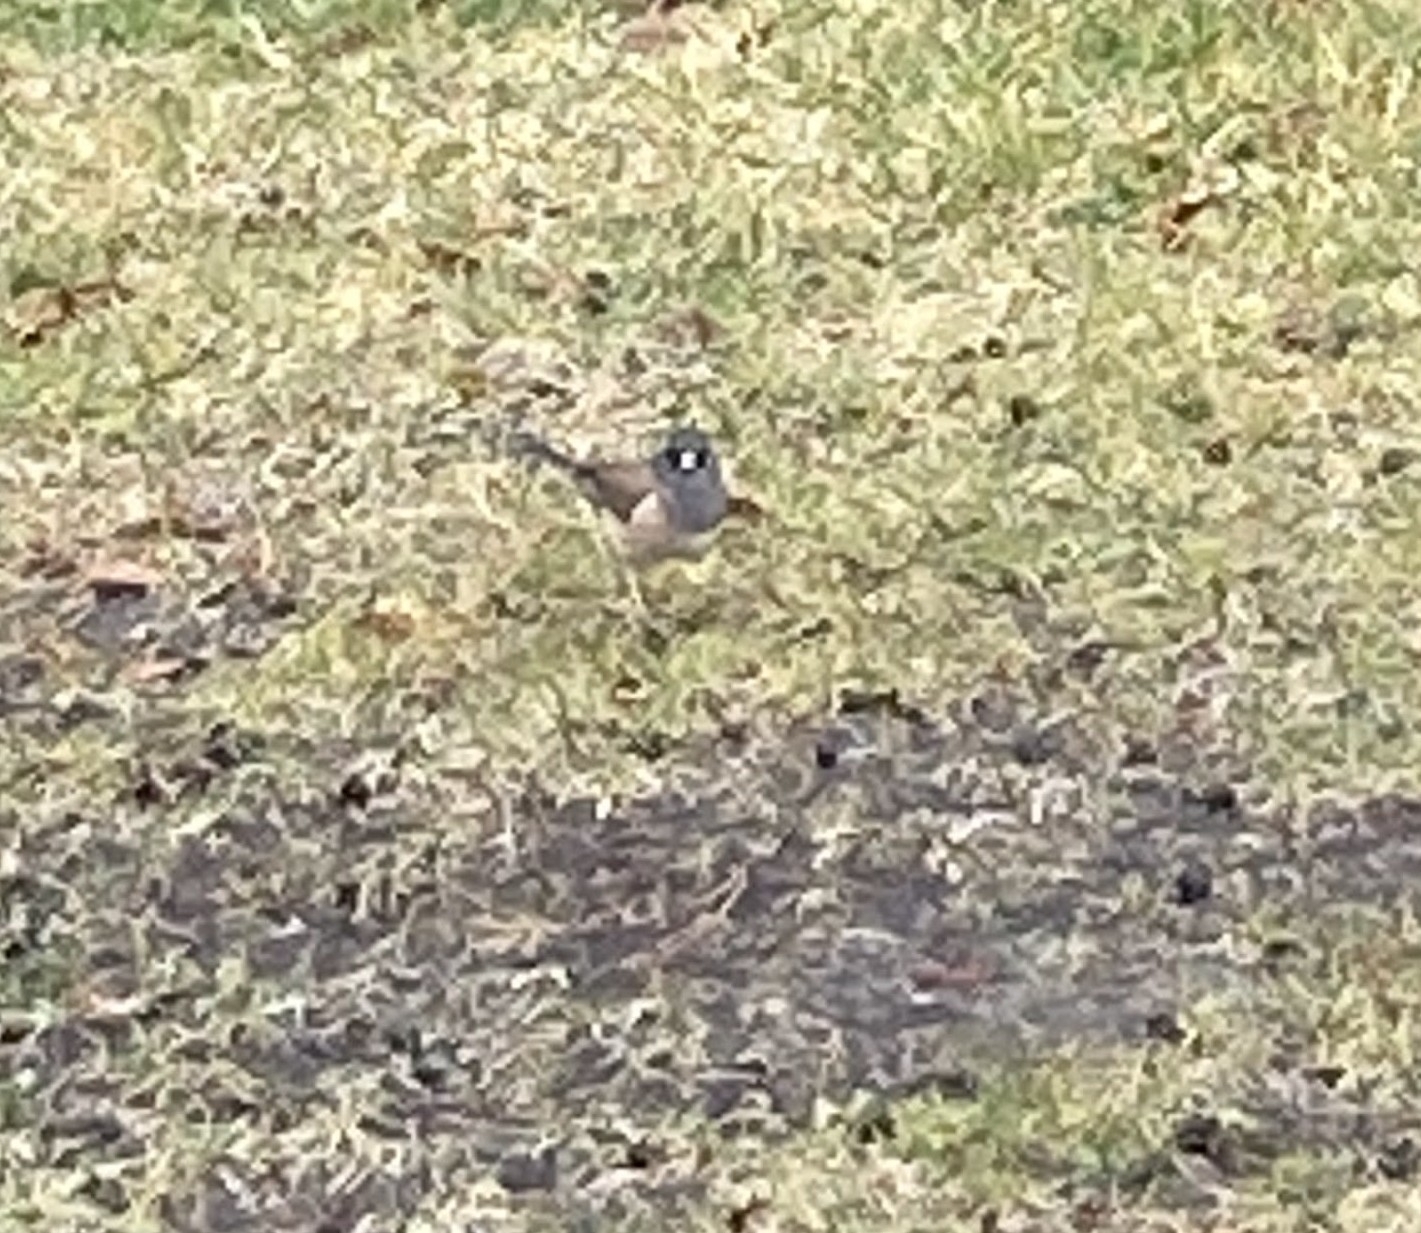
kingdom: Animalia
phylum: Chordata
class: Aves
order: Passeriformes
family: Passerellidae
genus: Junco
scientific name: Junco hyemalis
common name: Dark-eyed junco
